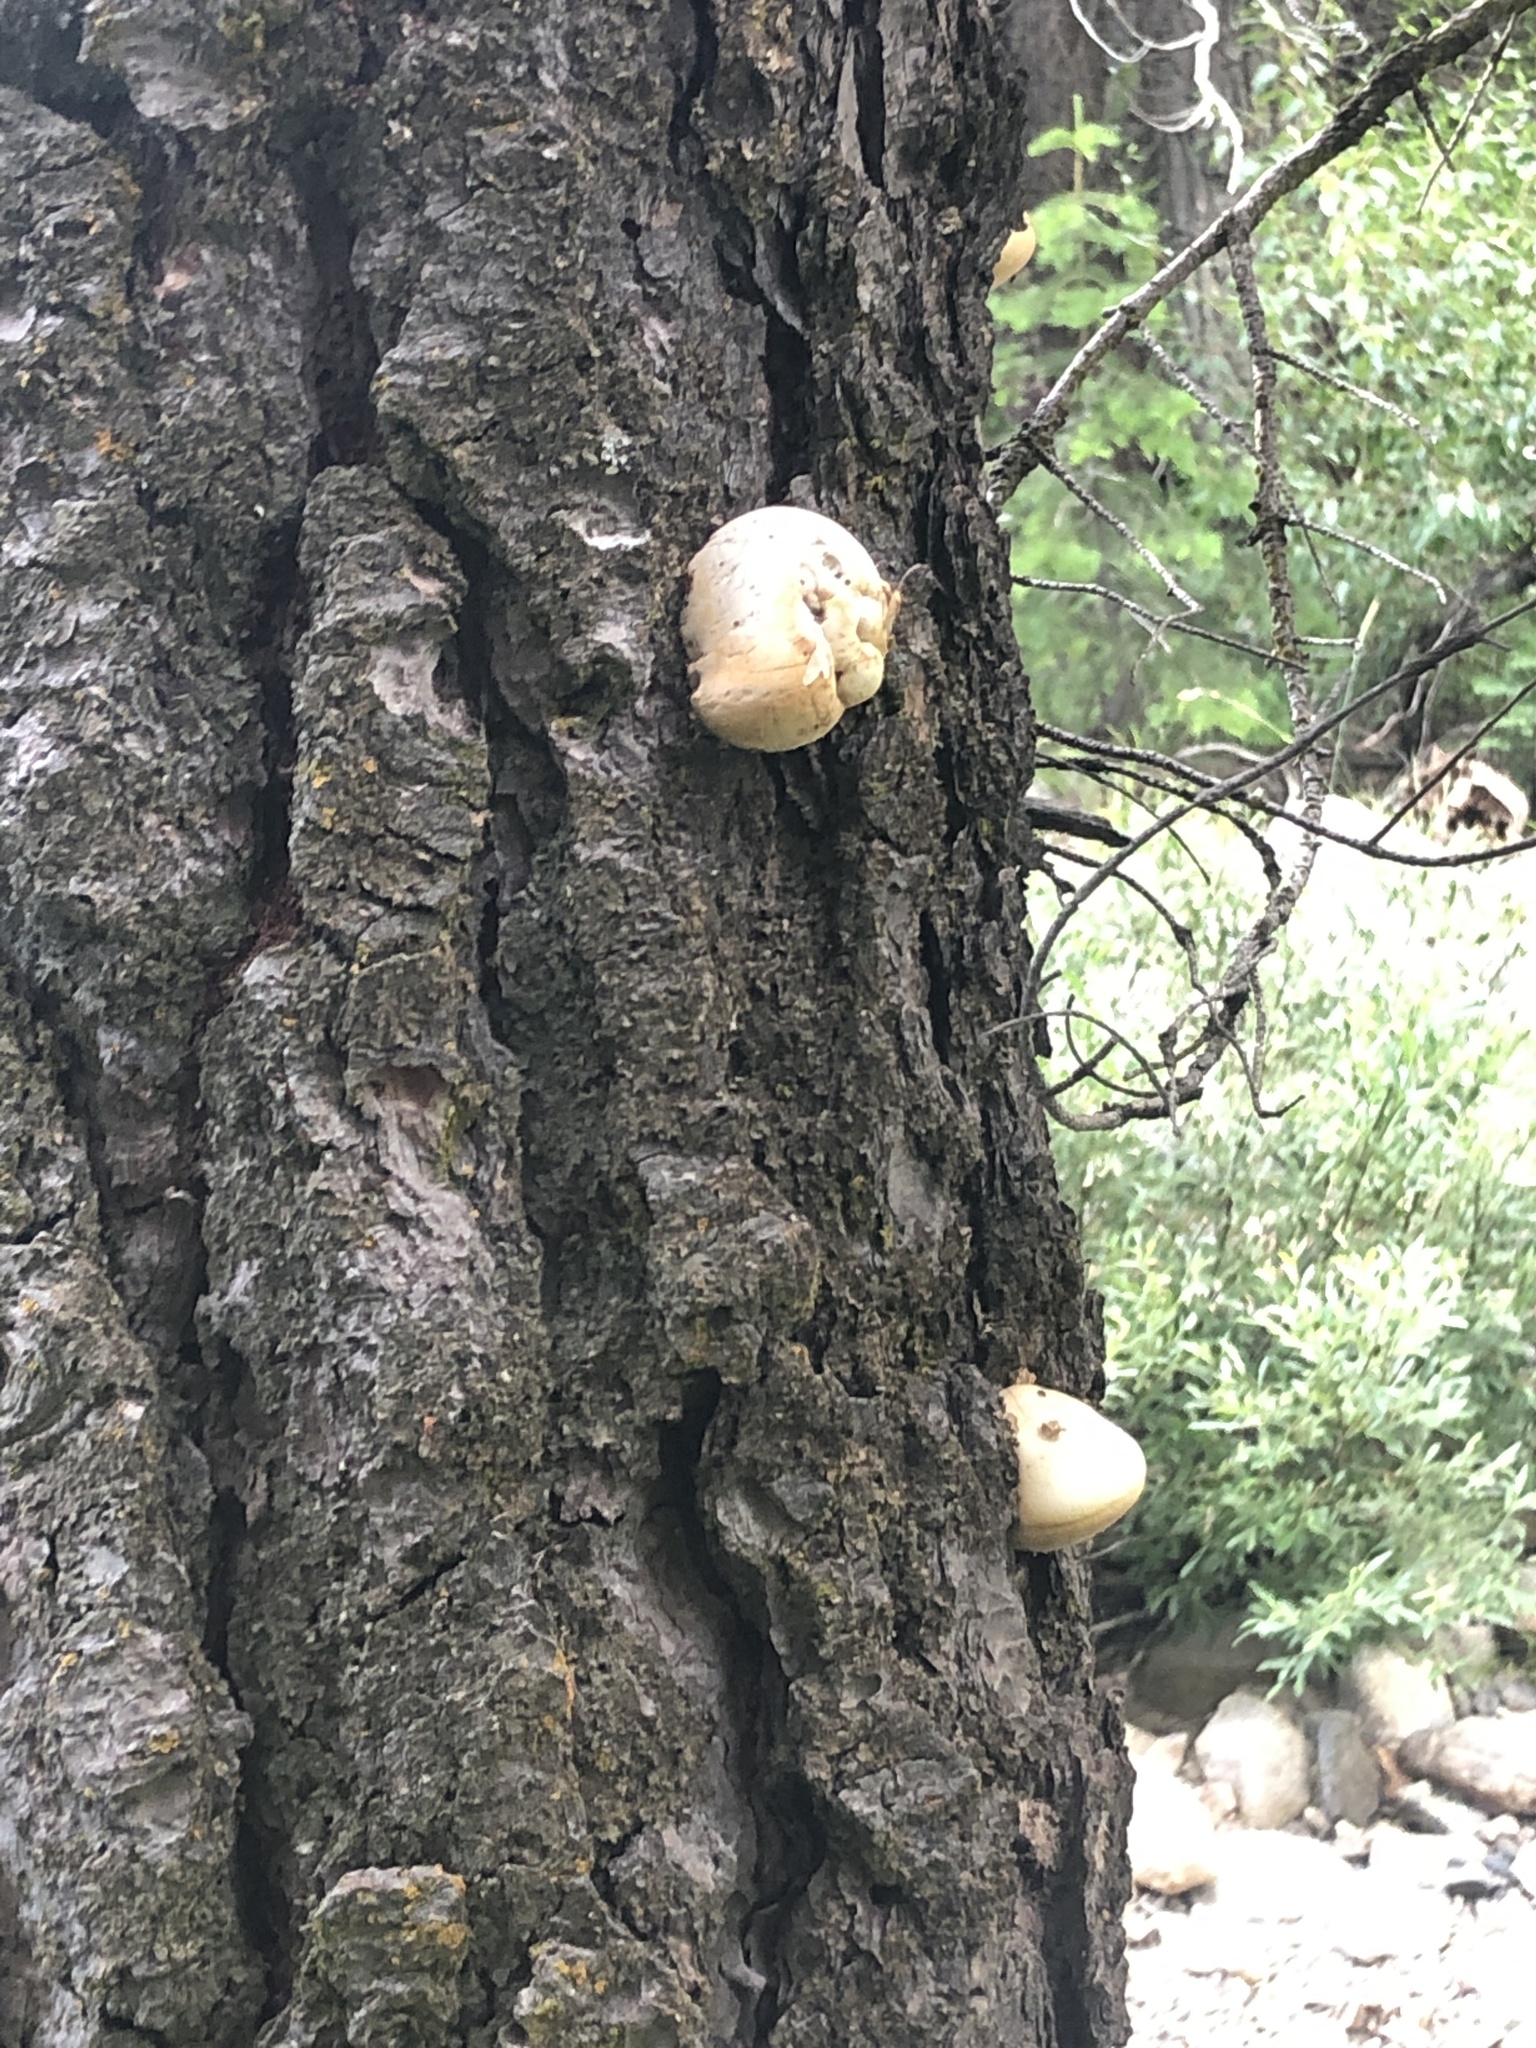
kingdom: Fungi
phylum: Basidiomycota
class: Agaricomycetes
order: Polyporales
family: Polyporaceae
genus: Cryptoporus
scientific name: Cryptoporus volvatus
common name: Veiled polypore
